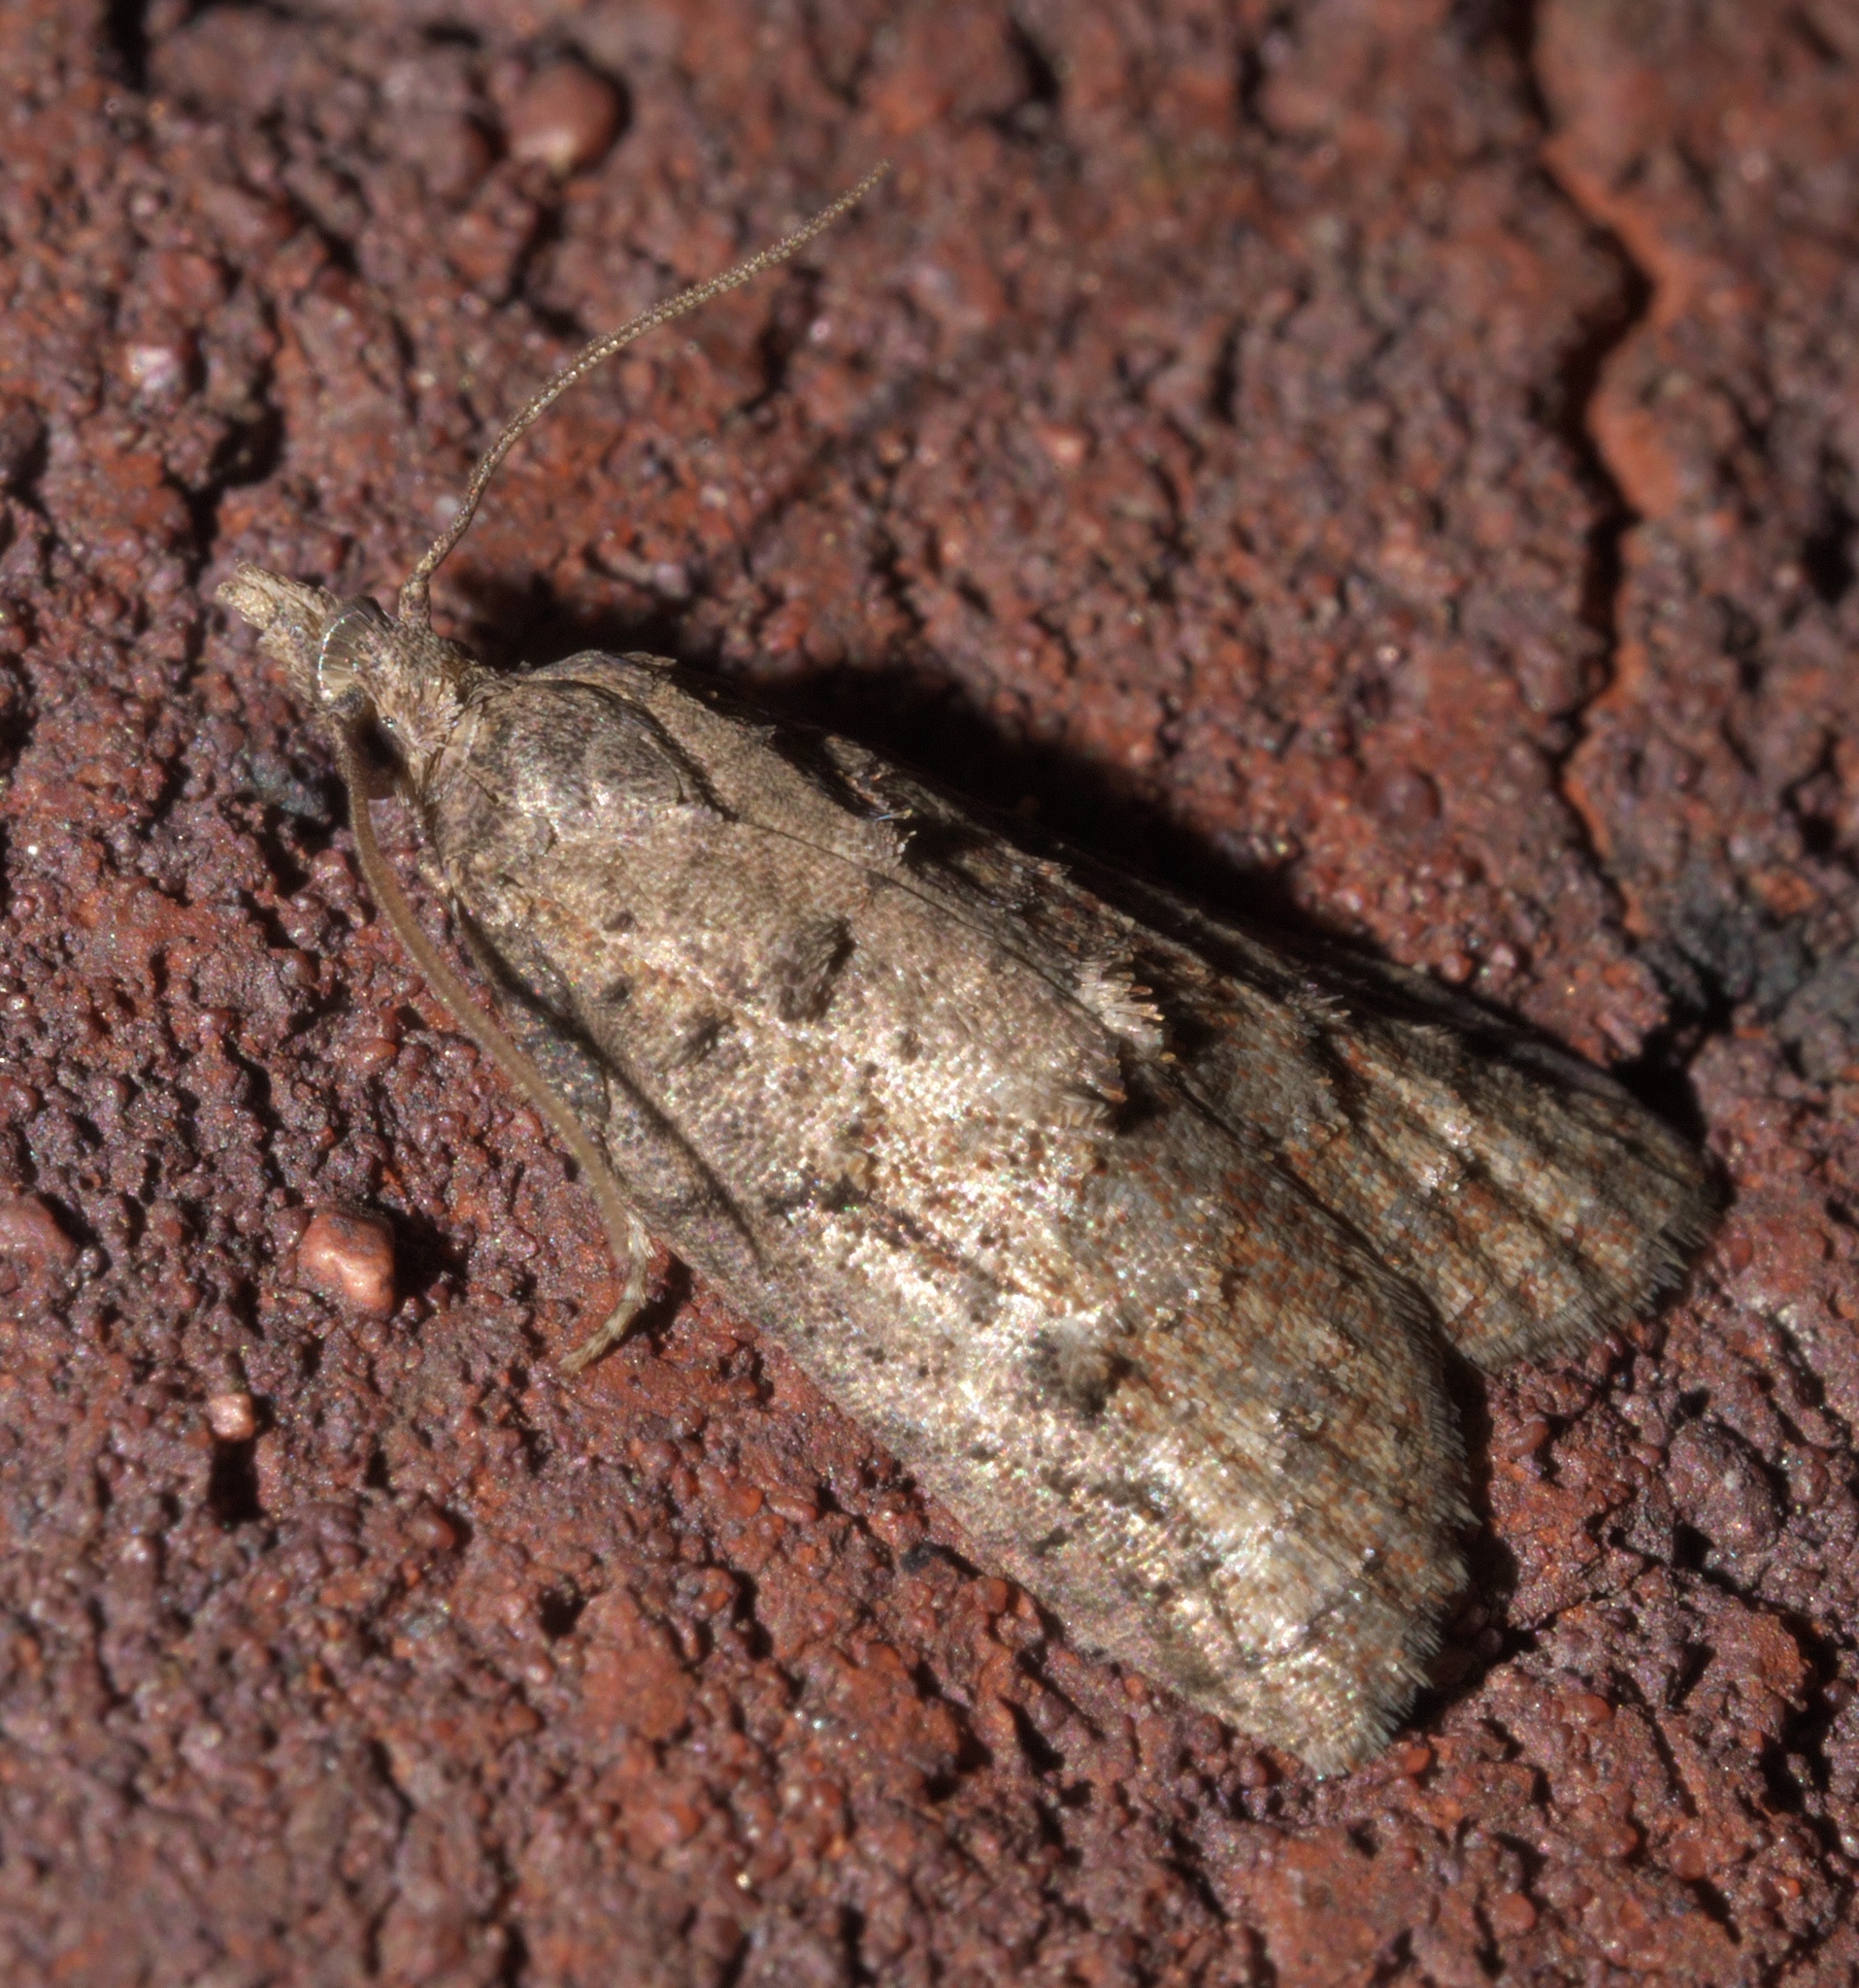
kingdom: Animalia
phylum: Arthropoda
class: Insecta
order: Lepidoptera
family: Tortricidae
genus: Platynota
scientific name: Platynota idaeusalis
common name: Tufted apple bud moth
